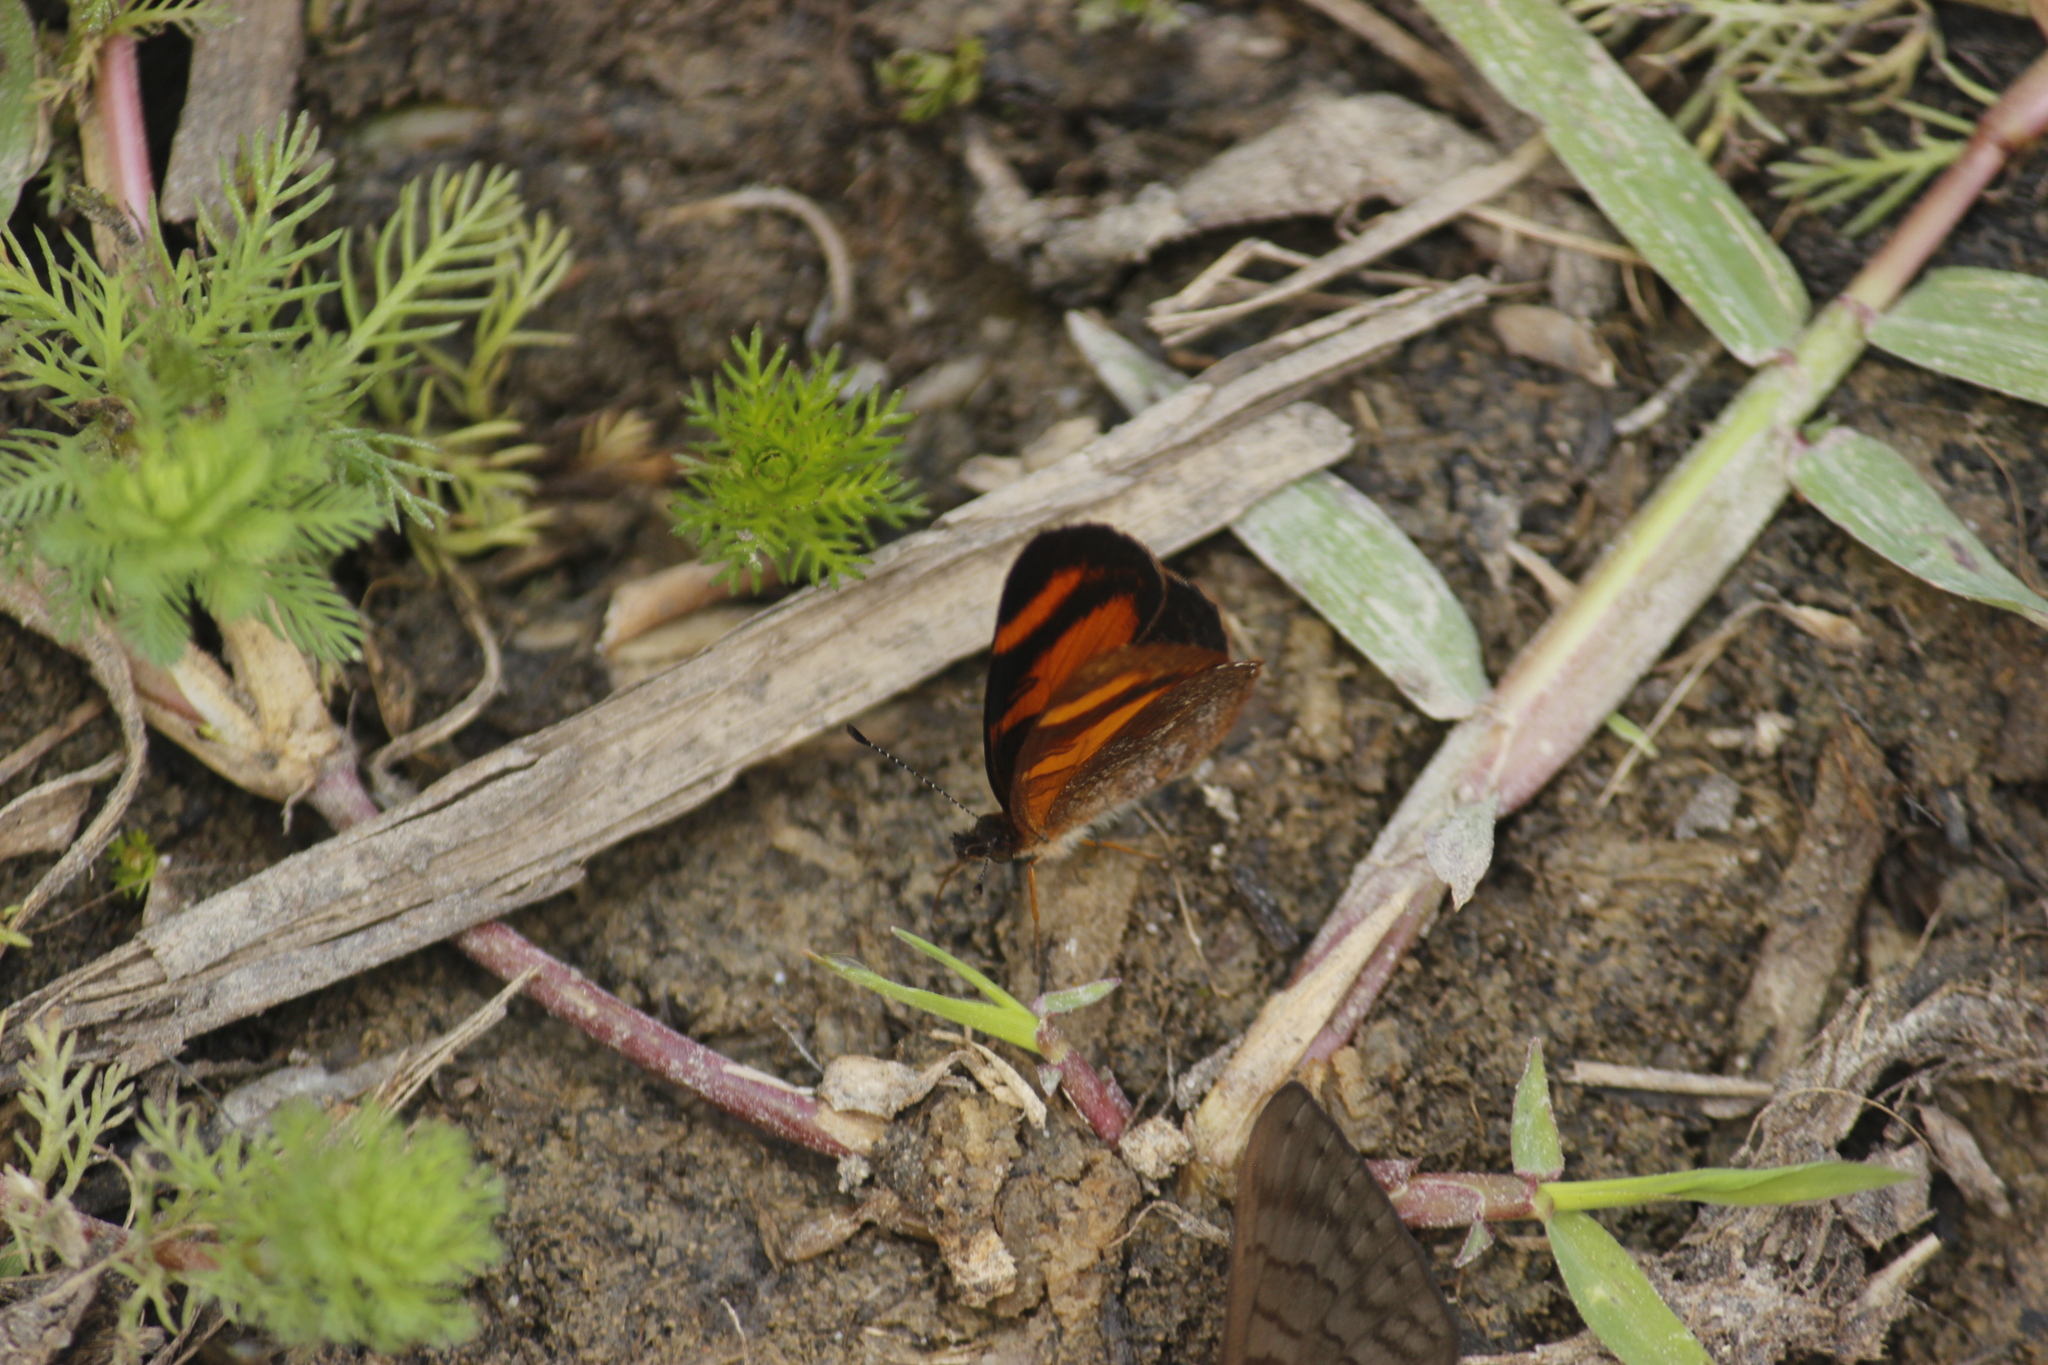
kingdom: Animalia
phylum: Arthropoda
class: Insecta
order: Lepidoptera
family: Nymphalidae
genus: Tegosa
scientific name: Tegosa etia
